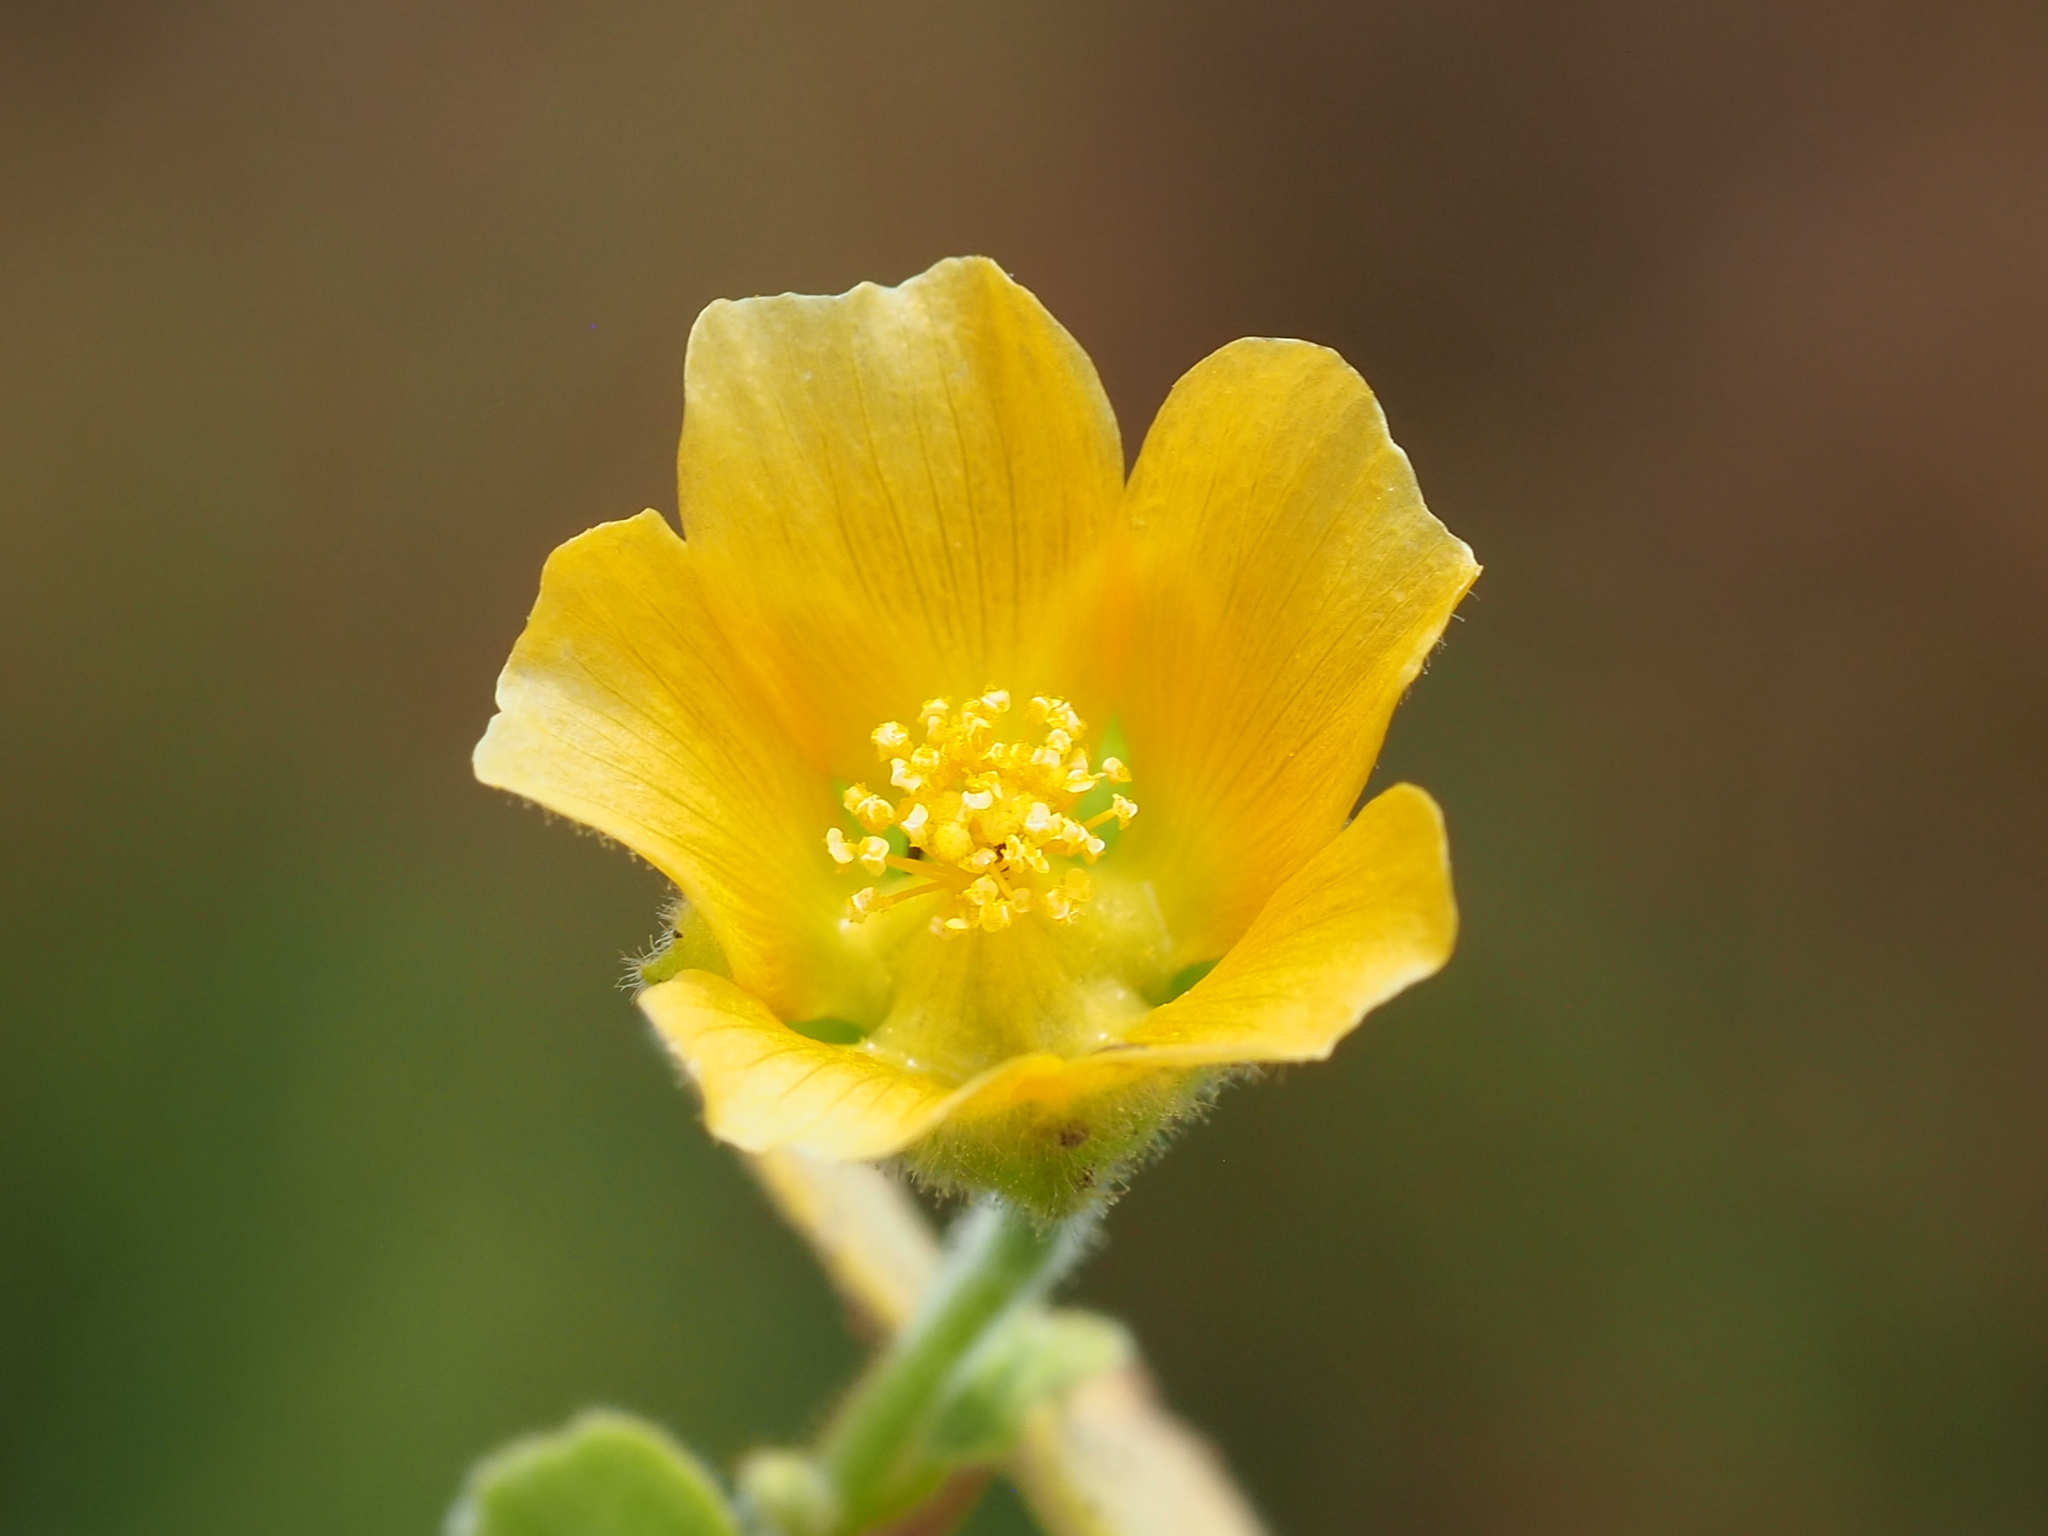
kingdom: Plantae
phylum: Tracheophyta
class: Magnoliopsida
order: Malvales
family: Malvaceae
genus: Abutilon
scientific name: Abutilon theophrasti
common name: Velvetleaf
